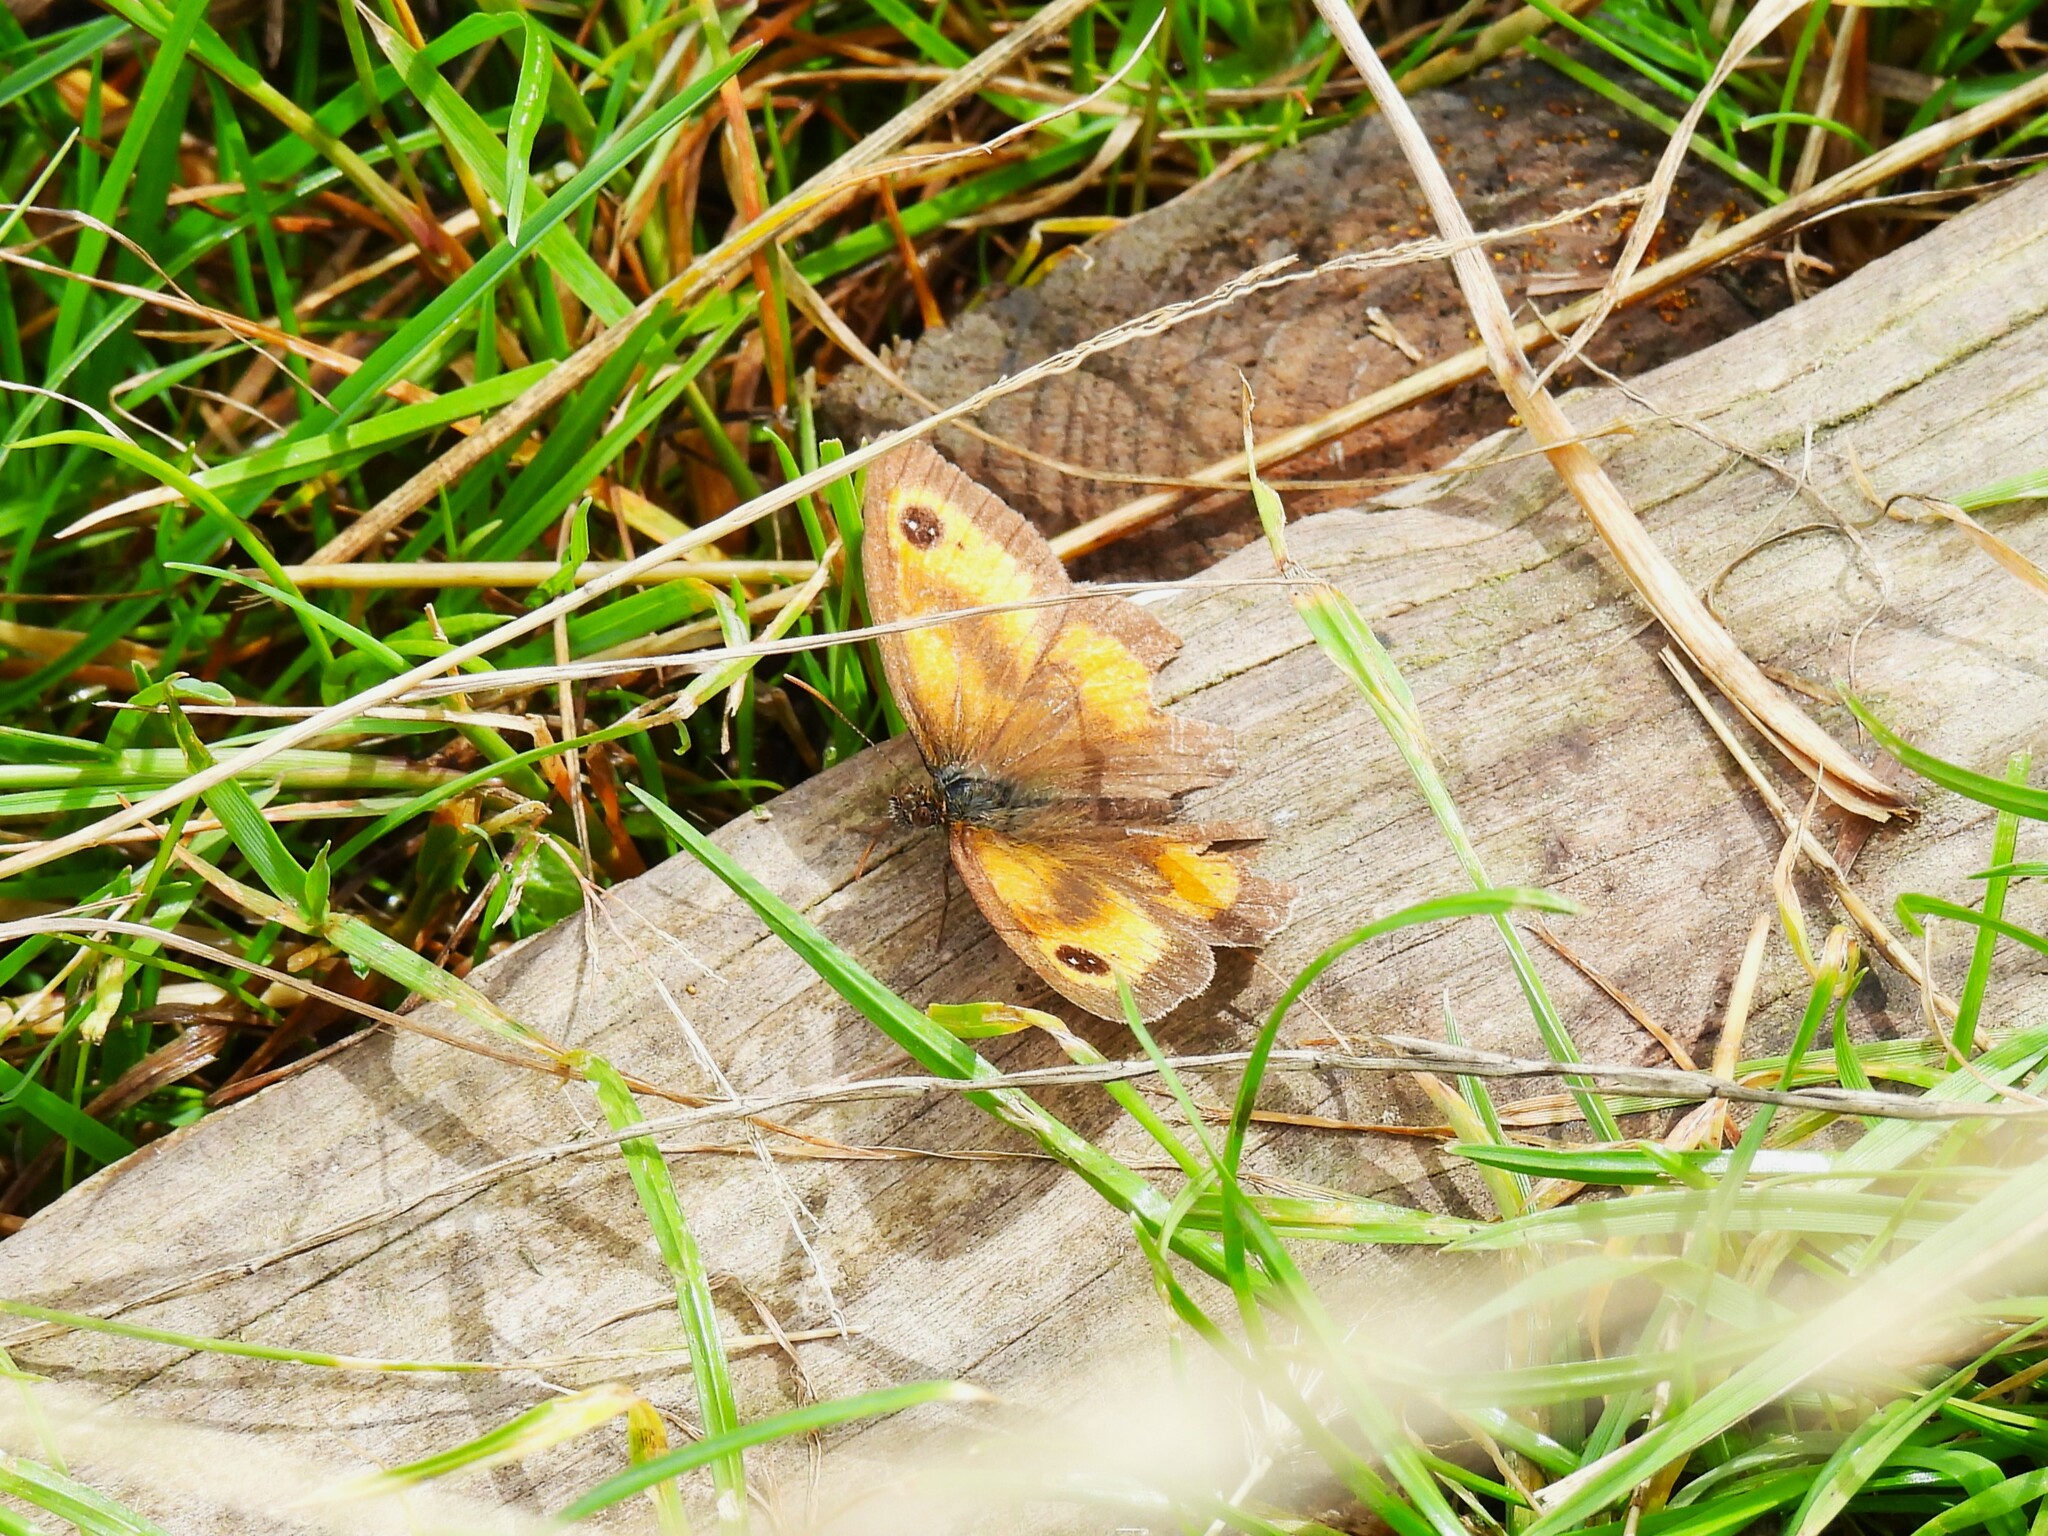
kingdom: Animalia
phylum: Arthropoda
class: Insecta
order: Lepidoptera
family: Nymphalidae
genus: Pyronia
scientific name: Pyronia tithonus
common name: Gatekeeper
